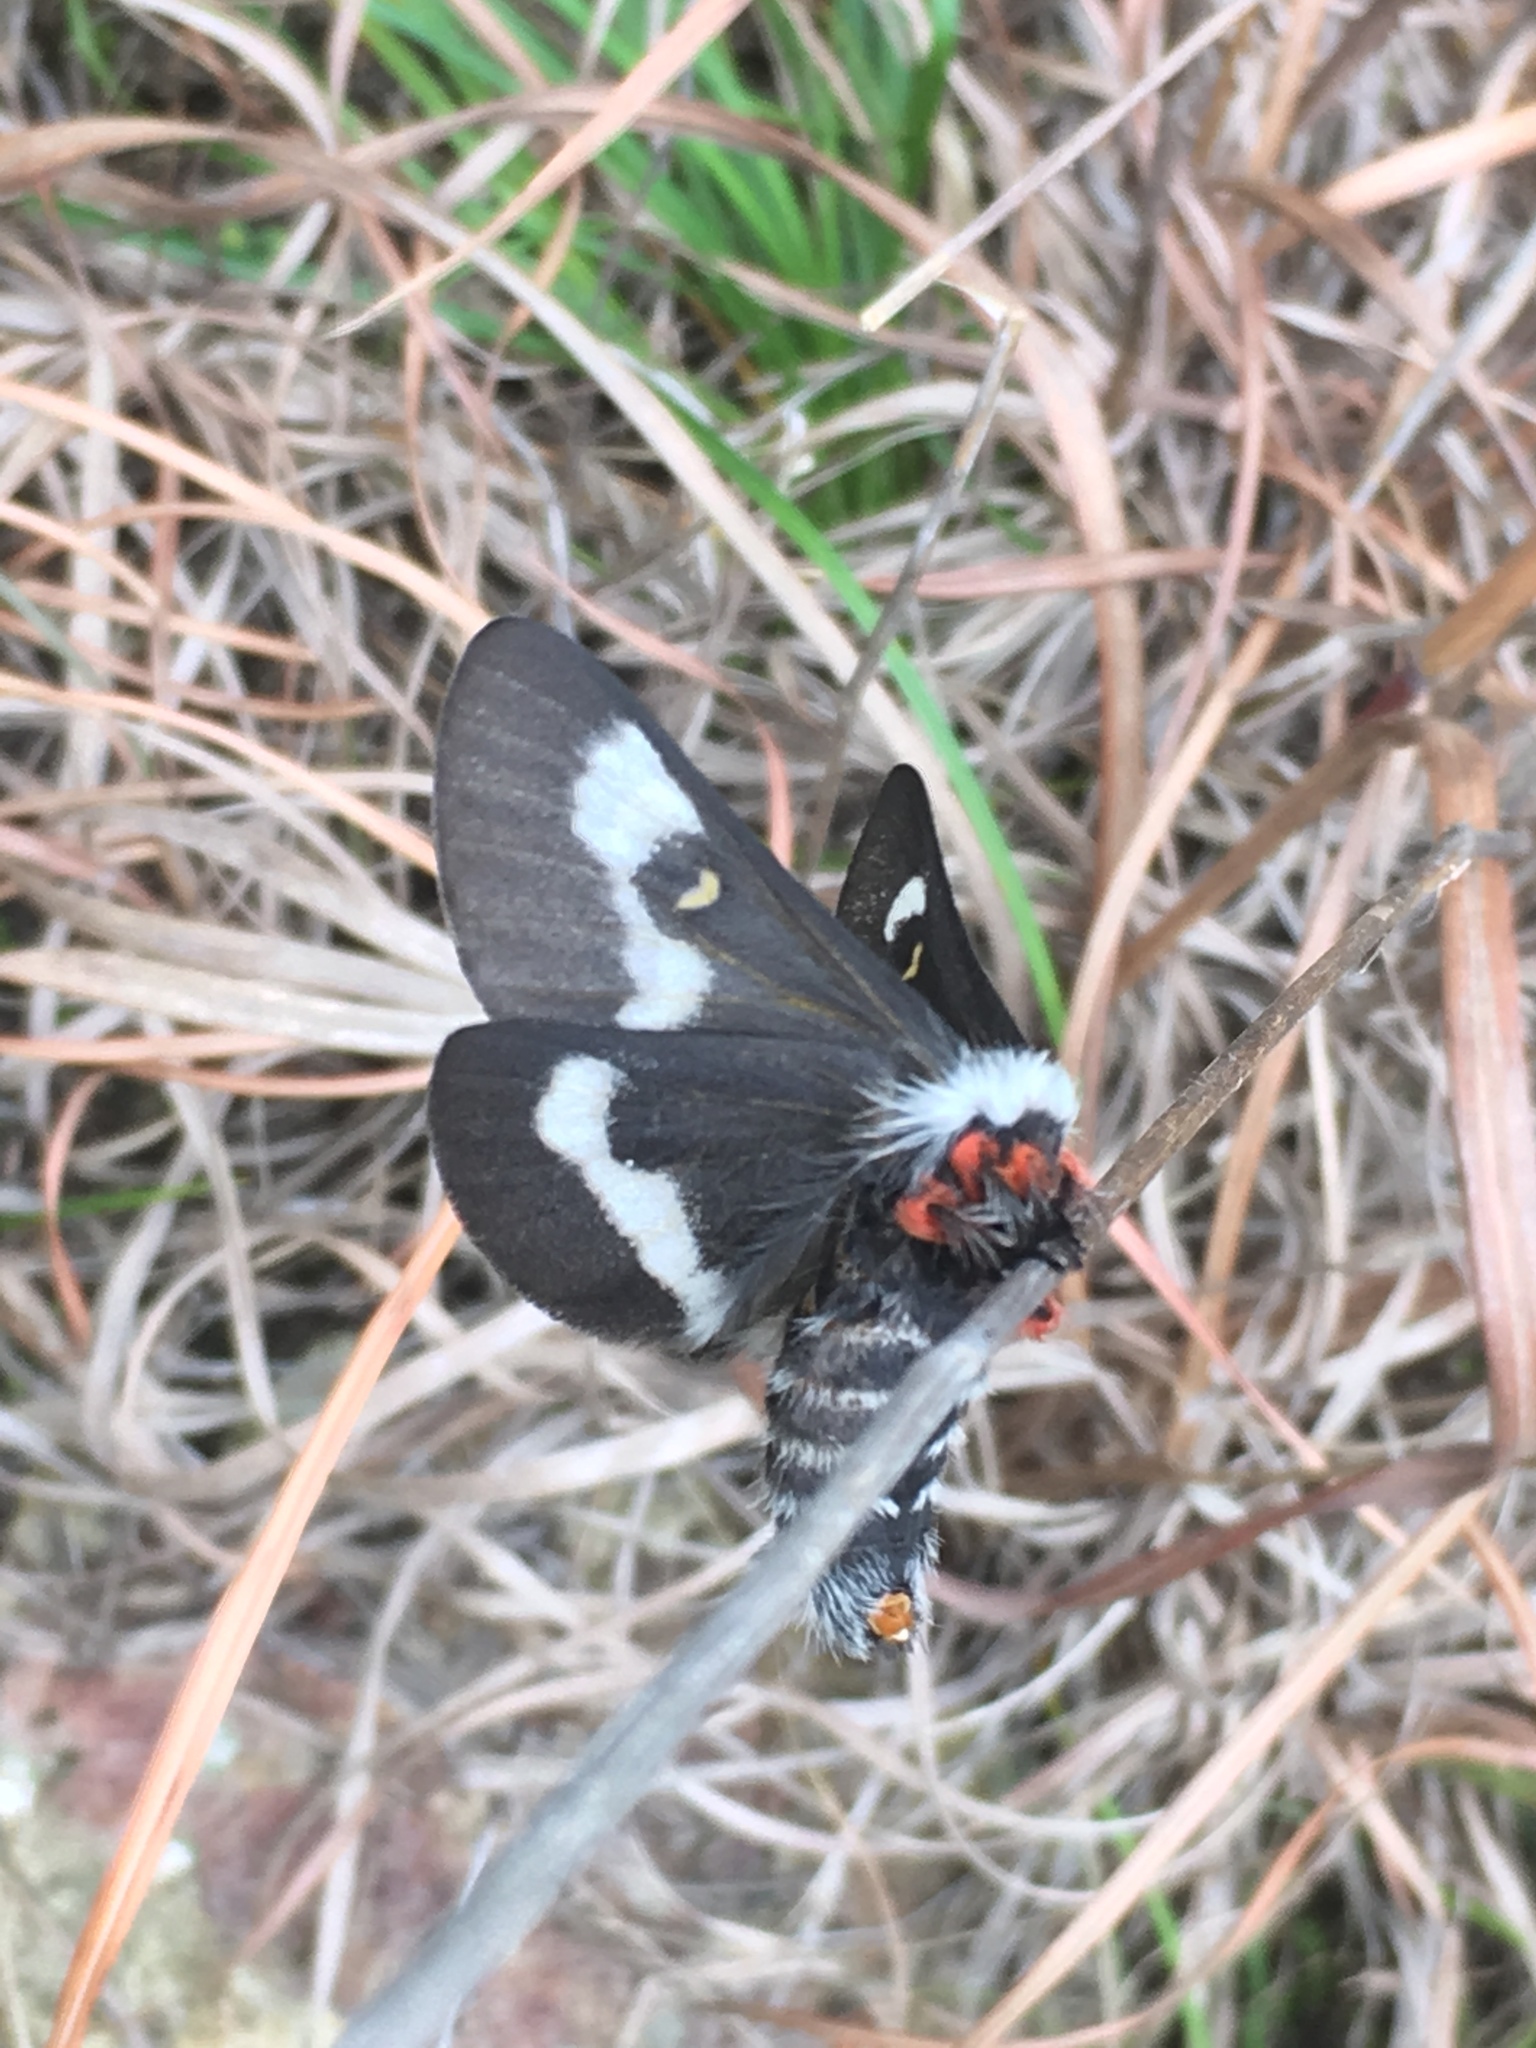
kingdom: Animalia
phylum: Arthropoda
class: Insecta
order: Lepidoptera
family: Saturniidae
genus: Hemileuca
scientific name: Hemileuca grotei
